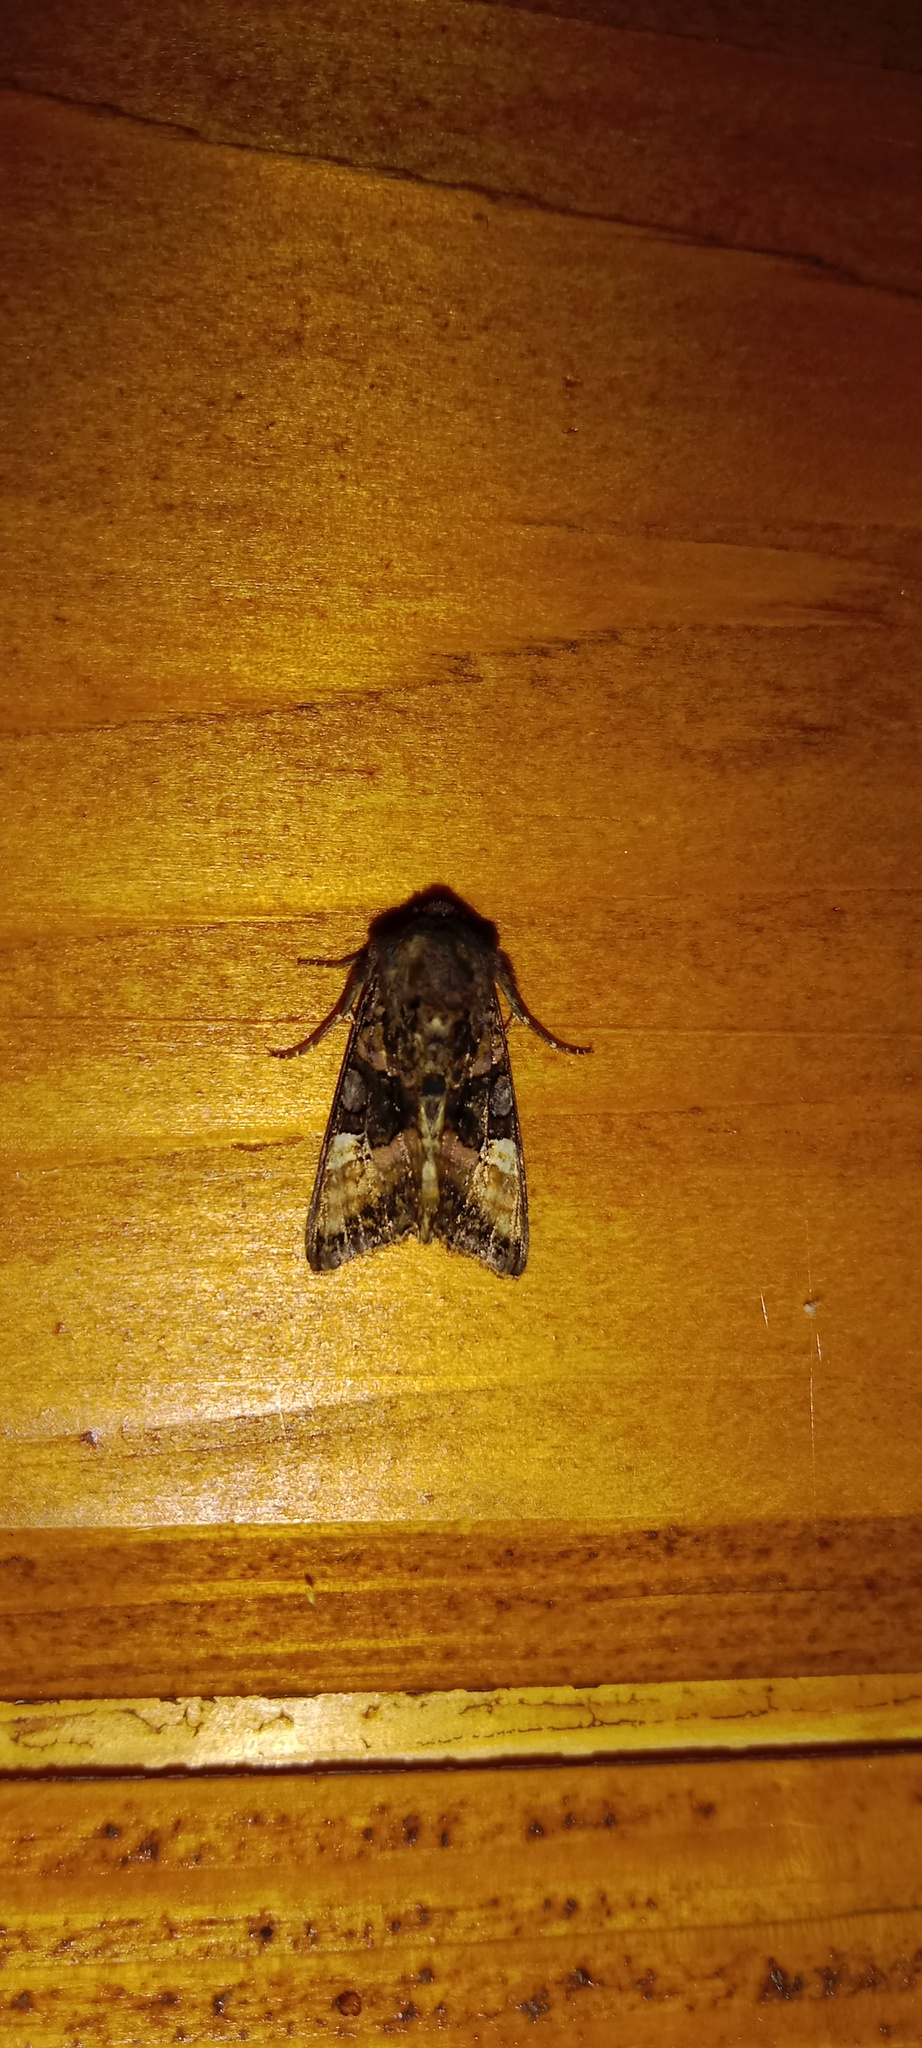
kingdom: Animalia
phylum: Arthropoda
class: Insecta
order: Lepidoptera
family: Noctuidae
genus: Euplexia
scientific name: Euplexia lucipara
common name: Small angle shades
